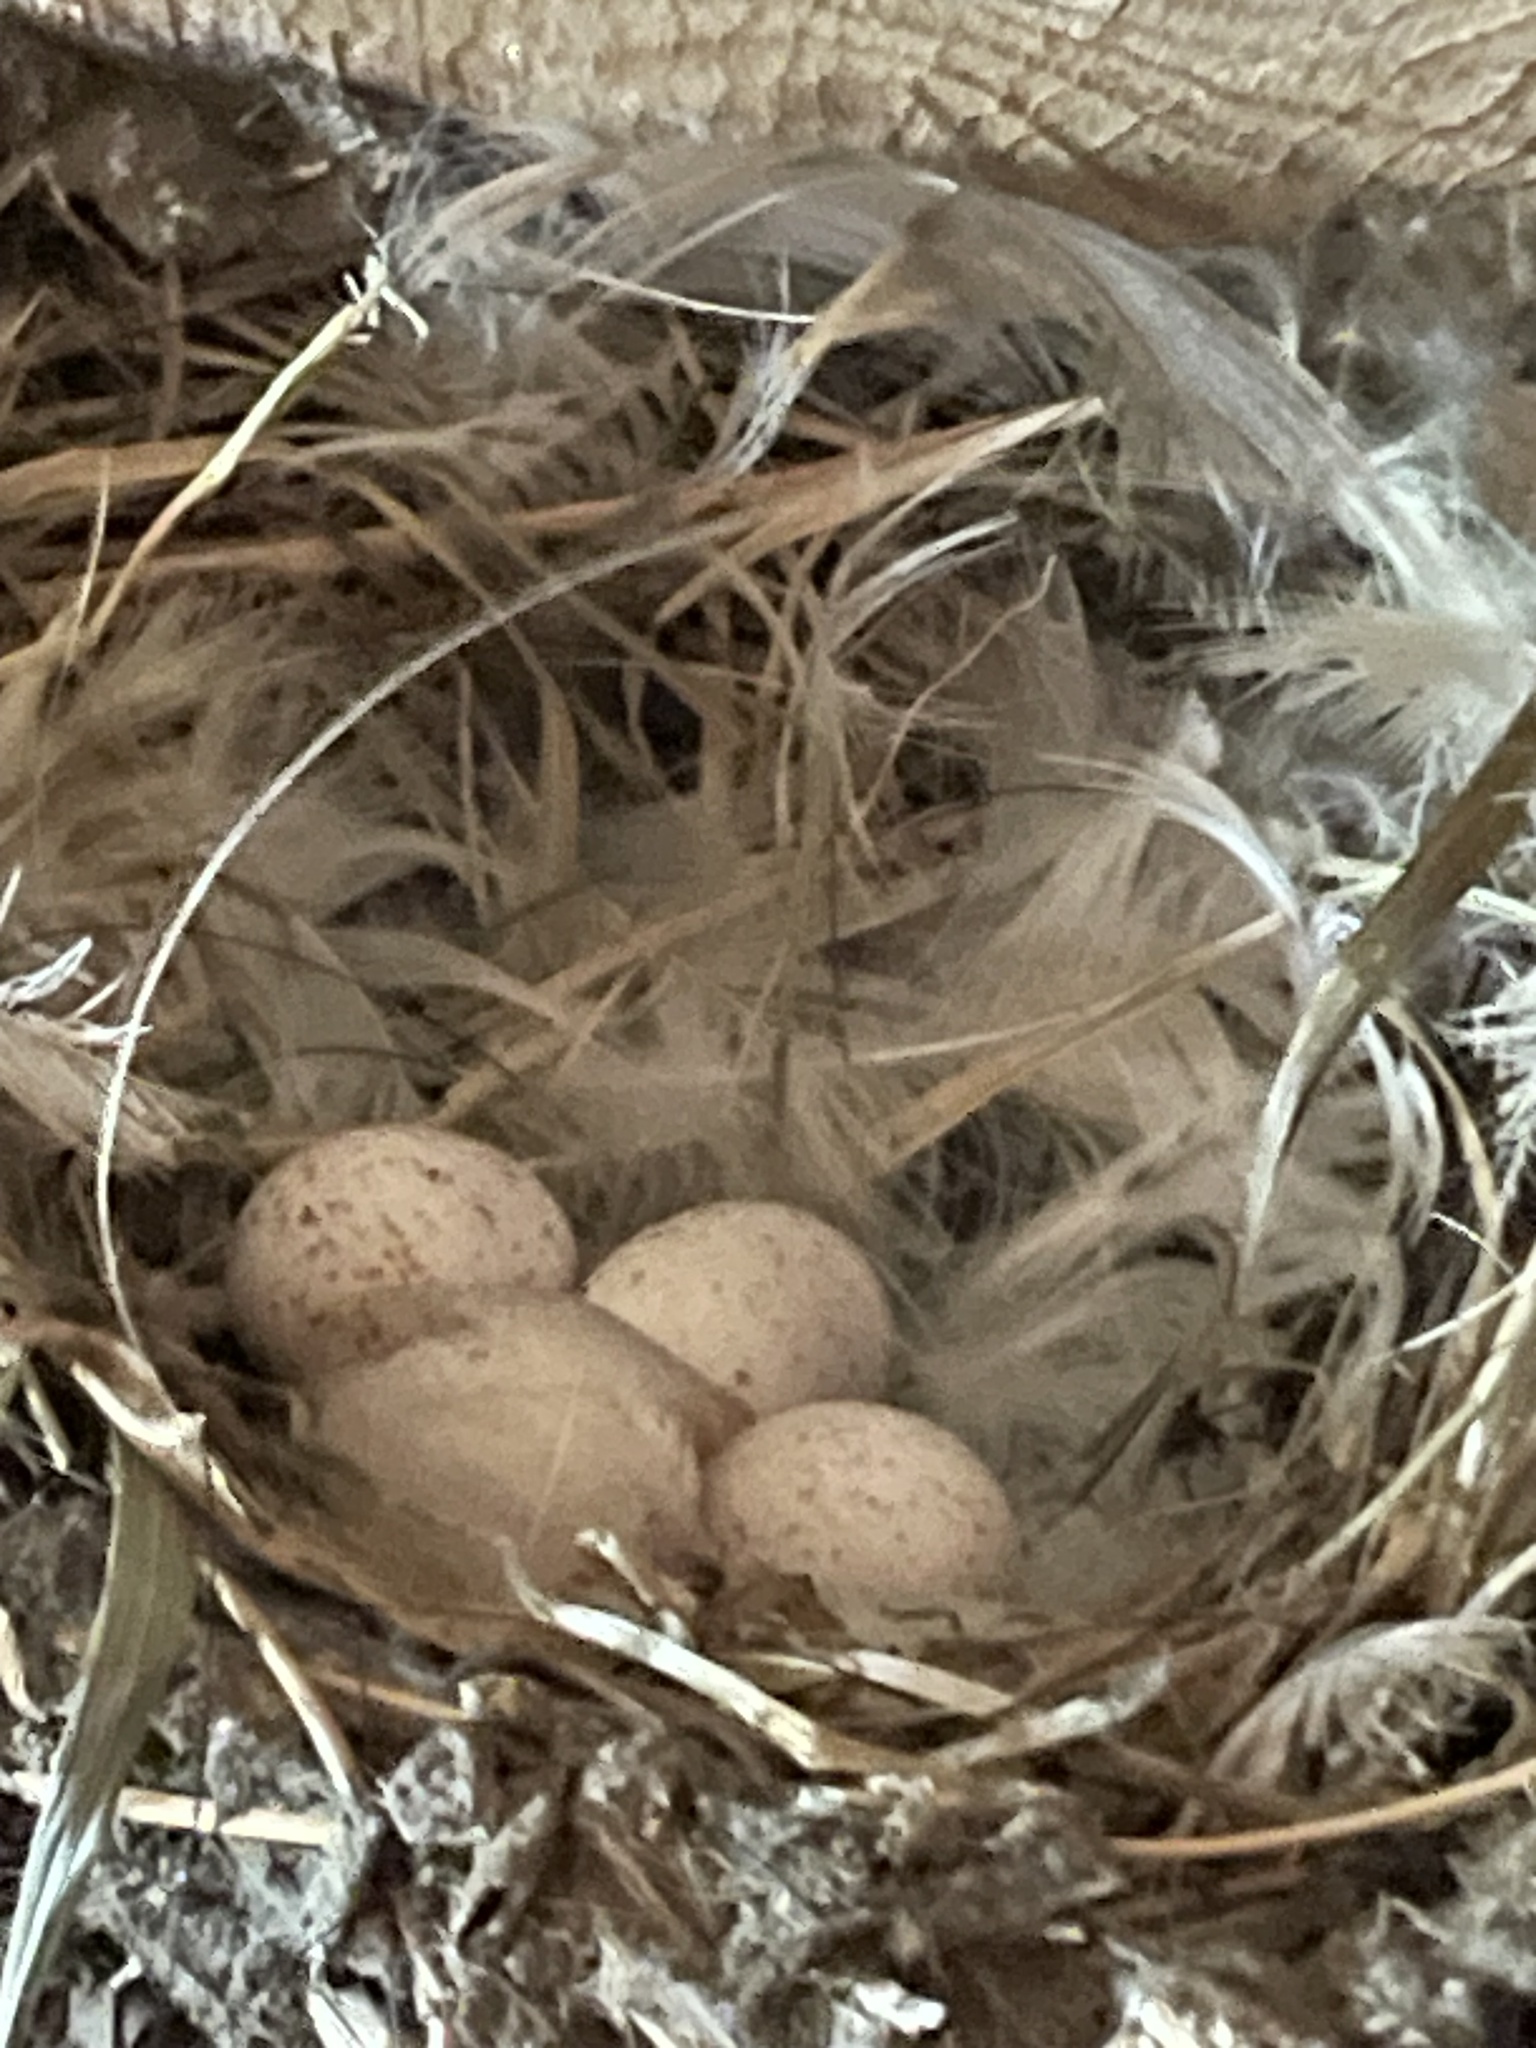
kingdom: Animalia
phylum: Chordata
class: Aves
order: Passeriformes
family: Hirundinidae
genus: Hirundo
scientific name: Hirundo rustica
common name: Barn swallow
